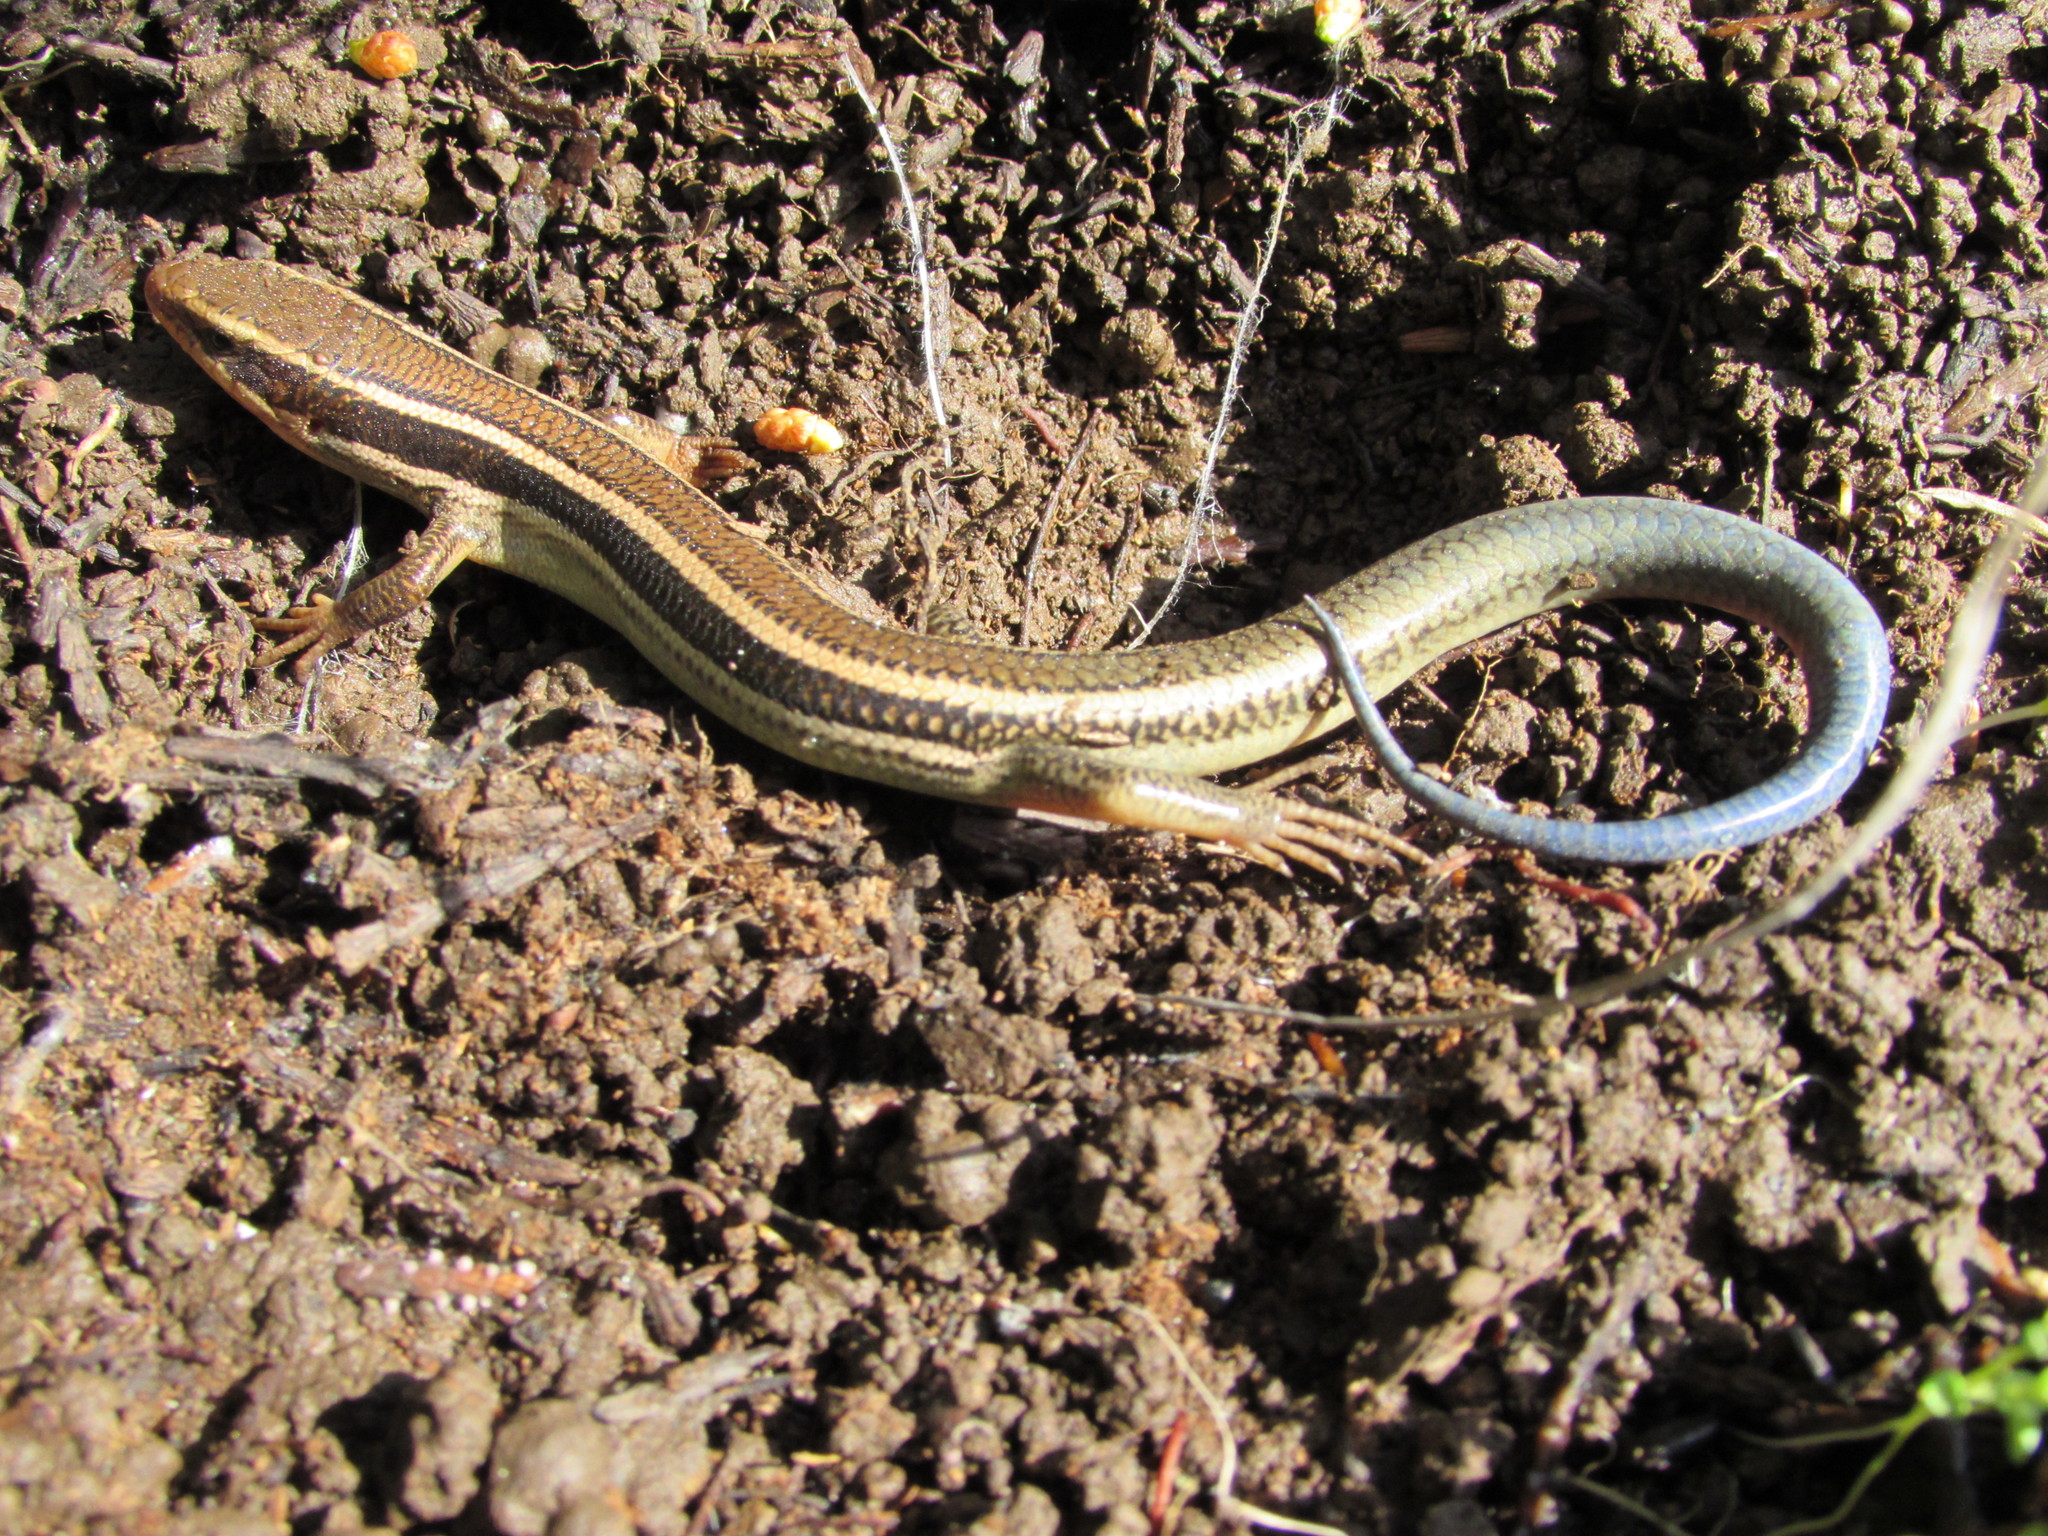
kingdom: Animalia
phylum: Chordata
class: Squamata
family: Scincidae
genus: Plestiodon
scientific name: Plestiodon skiltonianus
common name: Coronado island skink [interparietalis]
